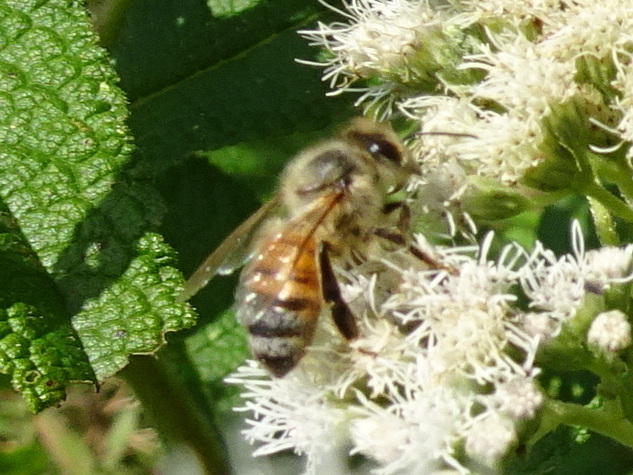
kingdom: Animalia
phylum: Arthropoda
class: Insecta
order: Hymenoptera
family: Apidae
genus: Apis
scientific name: Apis mellifera
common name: Honey bee
